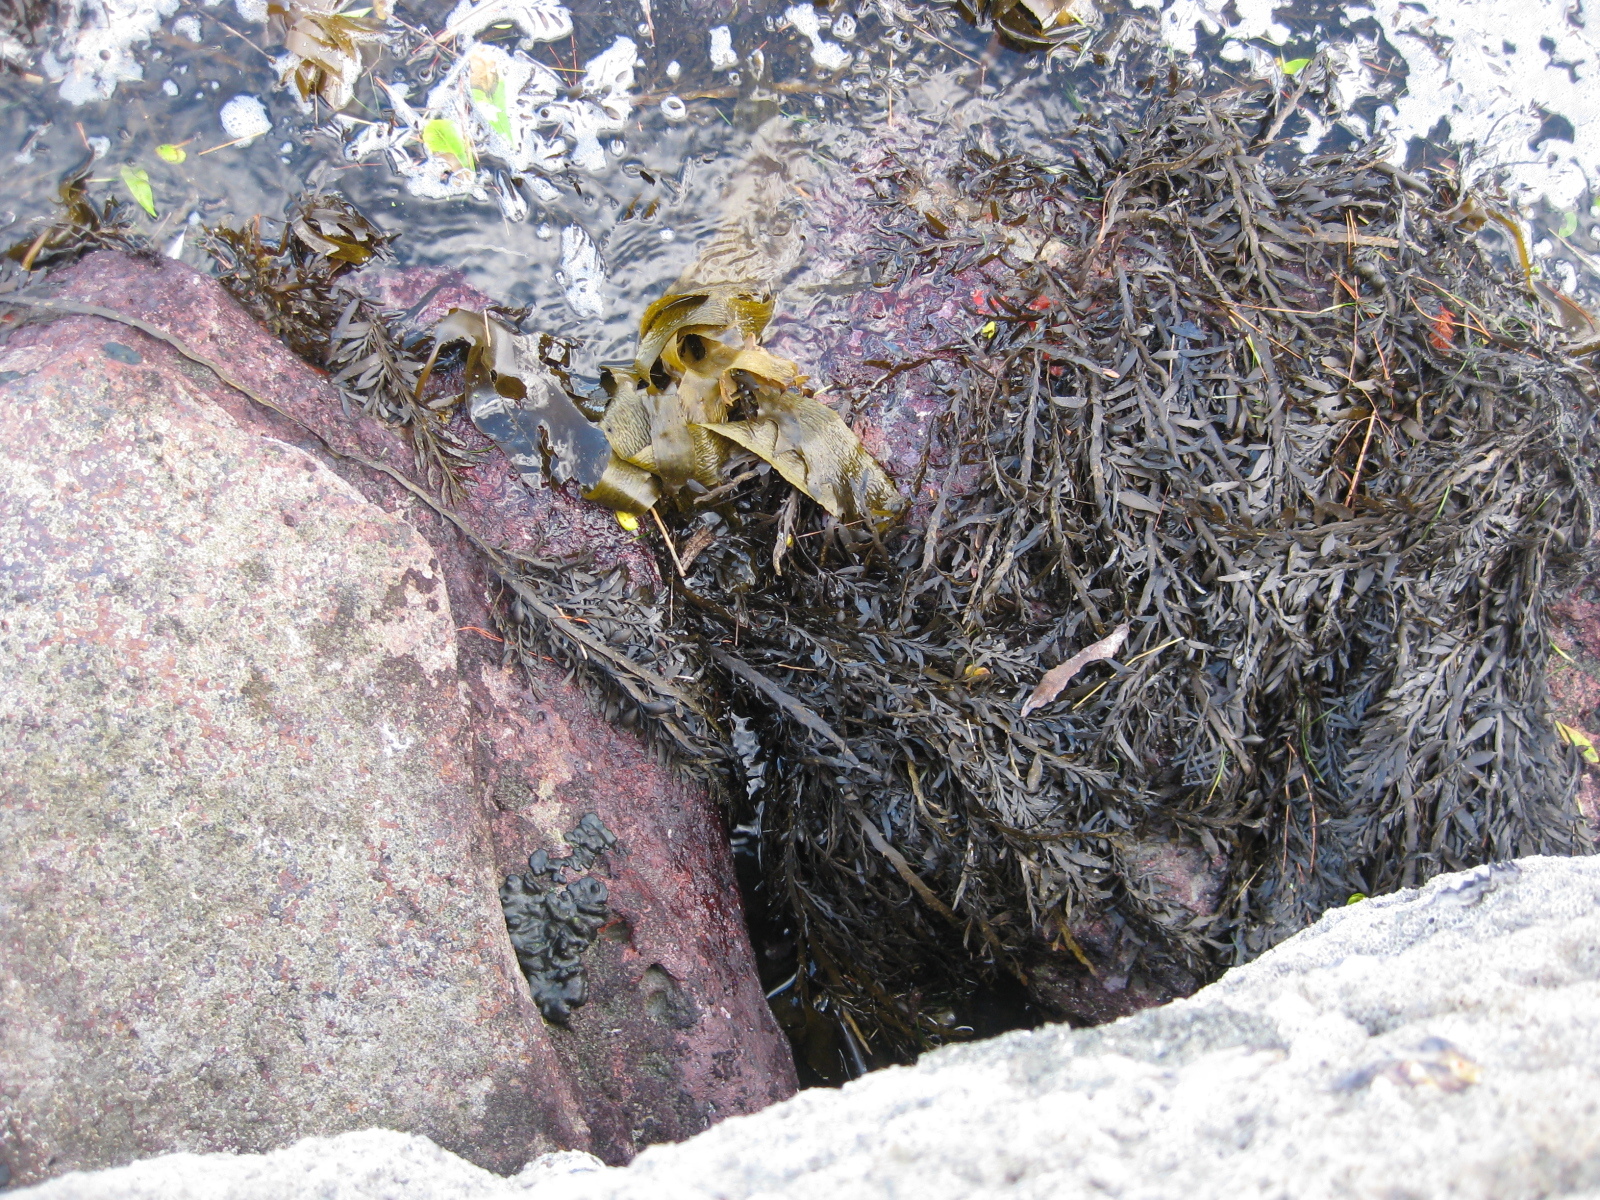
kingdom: Chromista
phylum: Ochrophyta
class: Phaeophyceae
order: Fucales
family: Sargassaceae
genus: Carpophyllum
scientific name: Carpophyllum maschalocarpum
